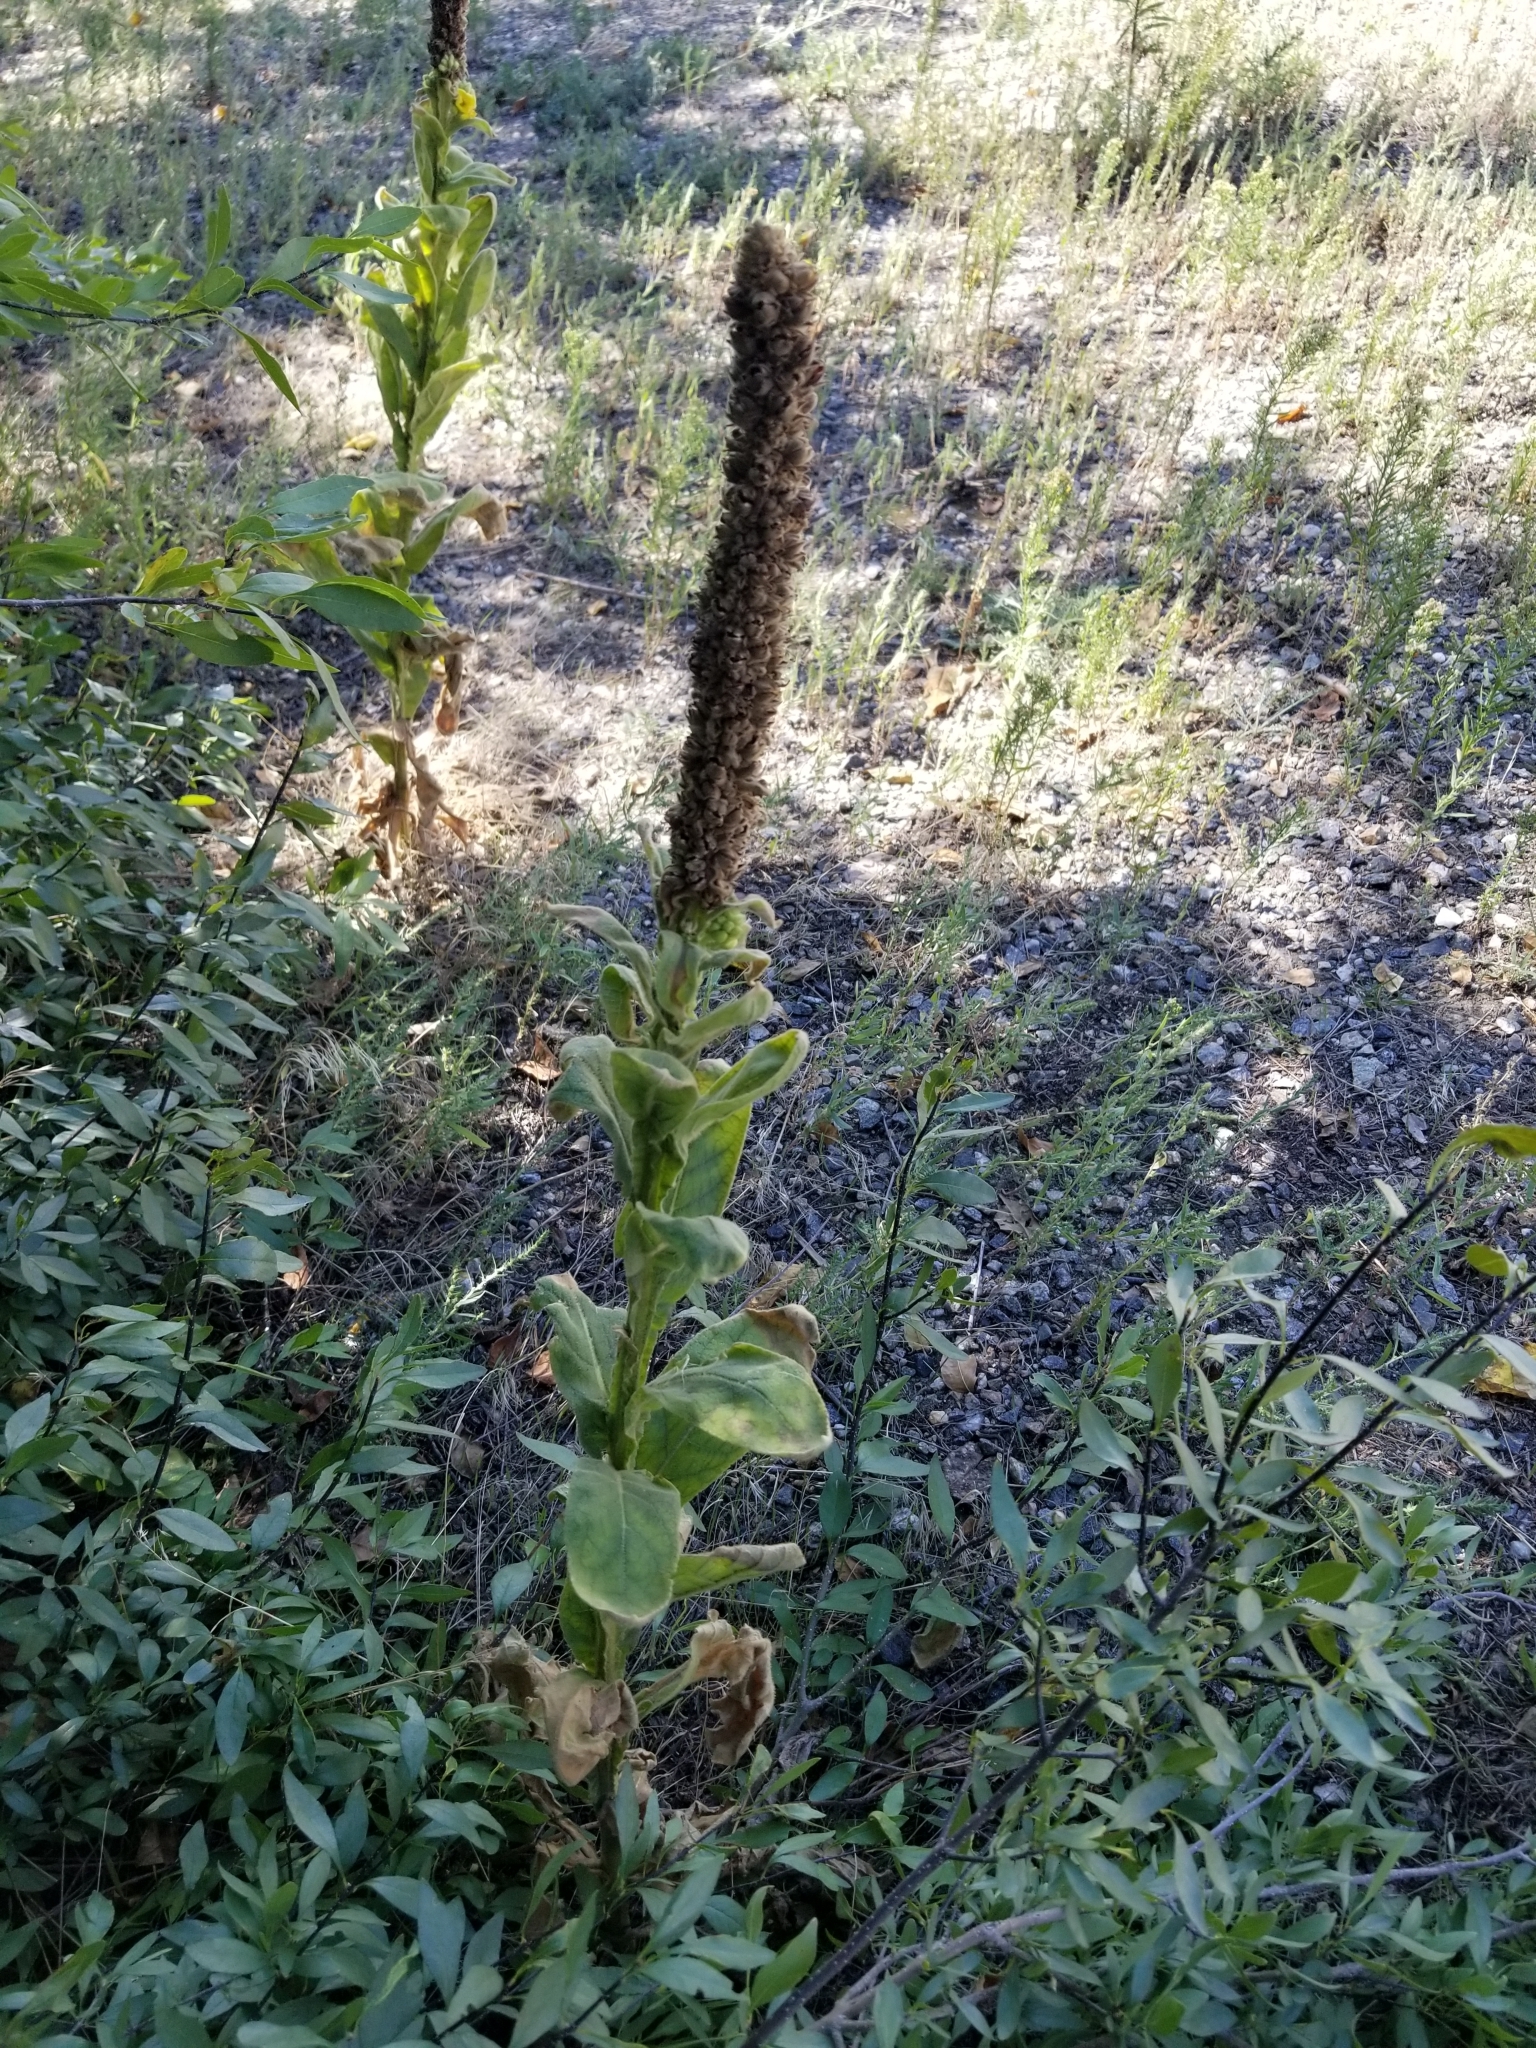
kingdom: Plantae
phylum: Tracheophyta
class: Magnoliopsida
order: Lamiales
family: Scrophulariaceae
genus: Verbascum
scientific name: Verbascum thapsus
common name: Common mullein
